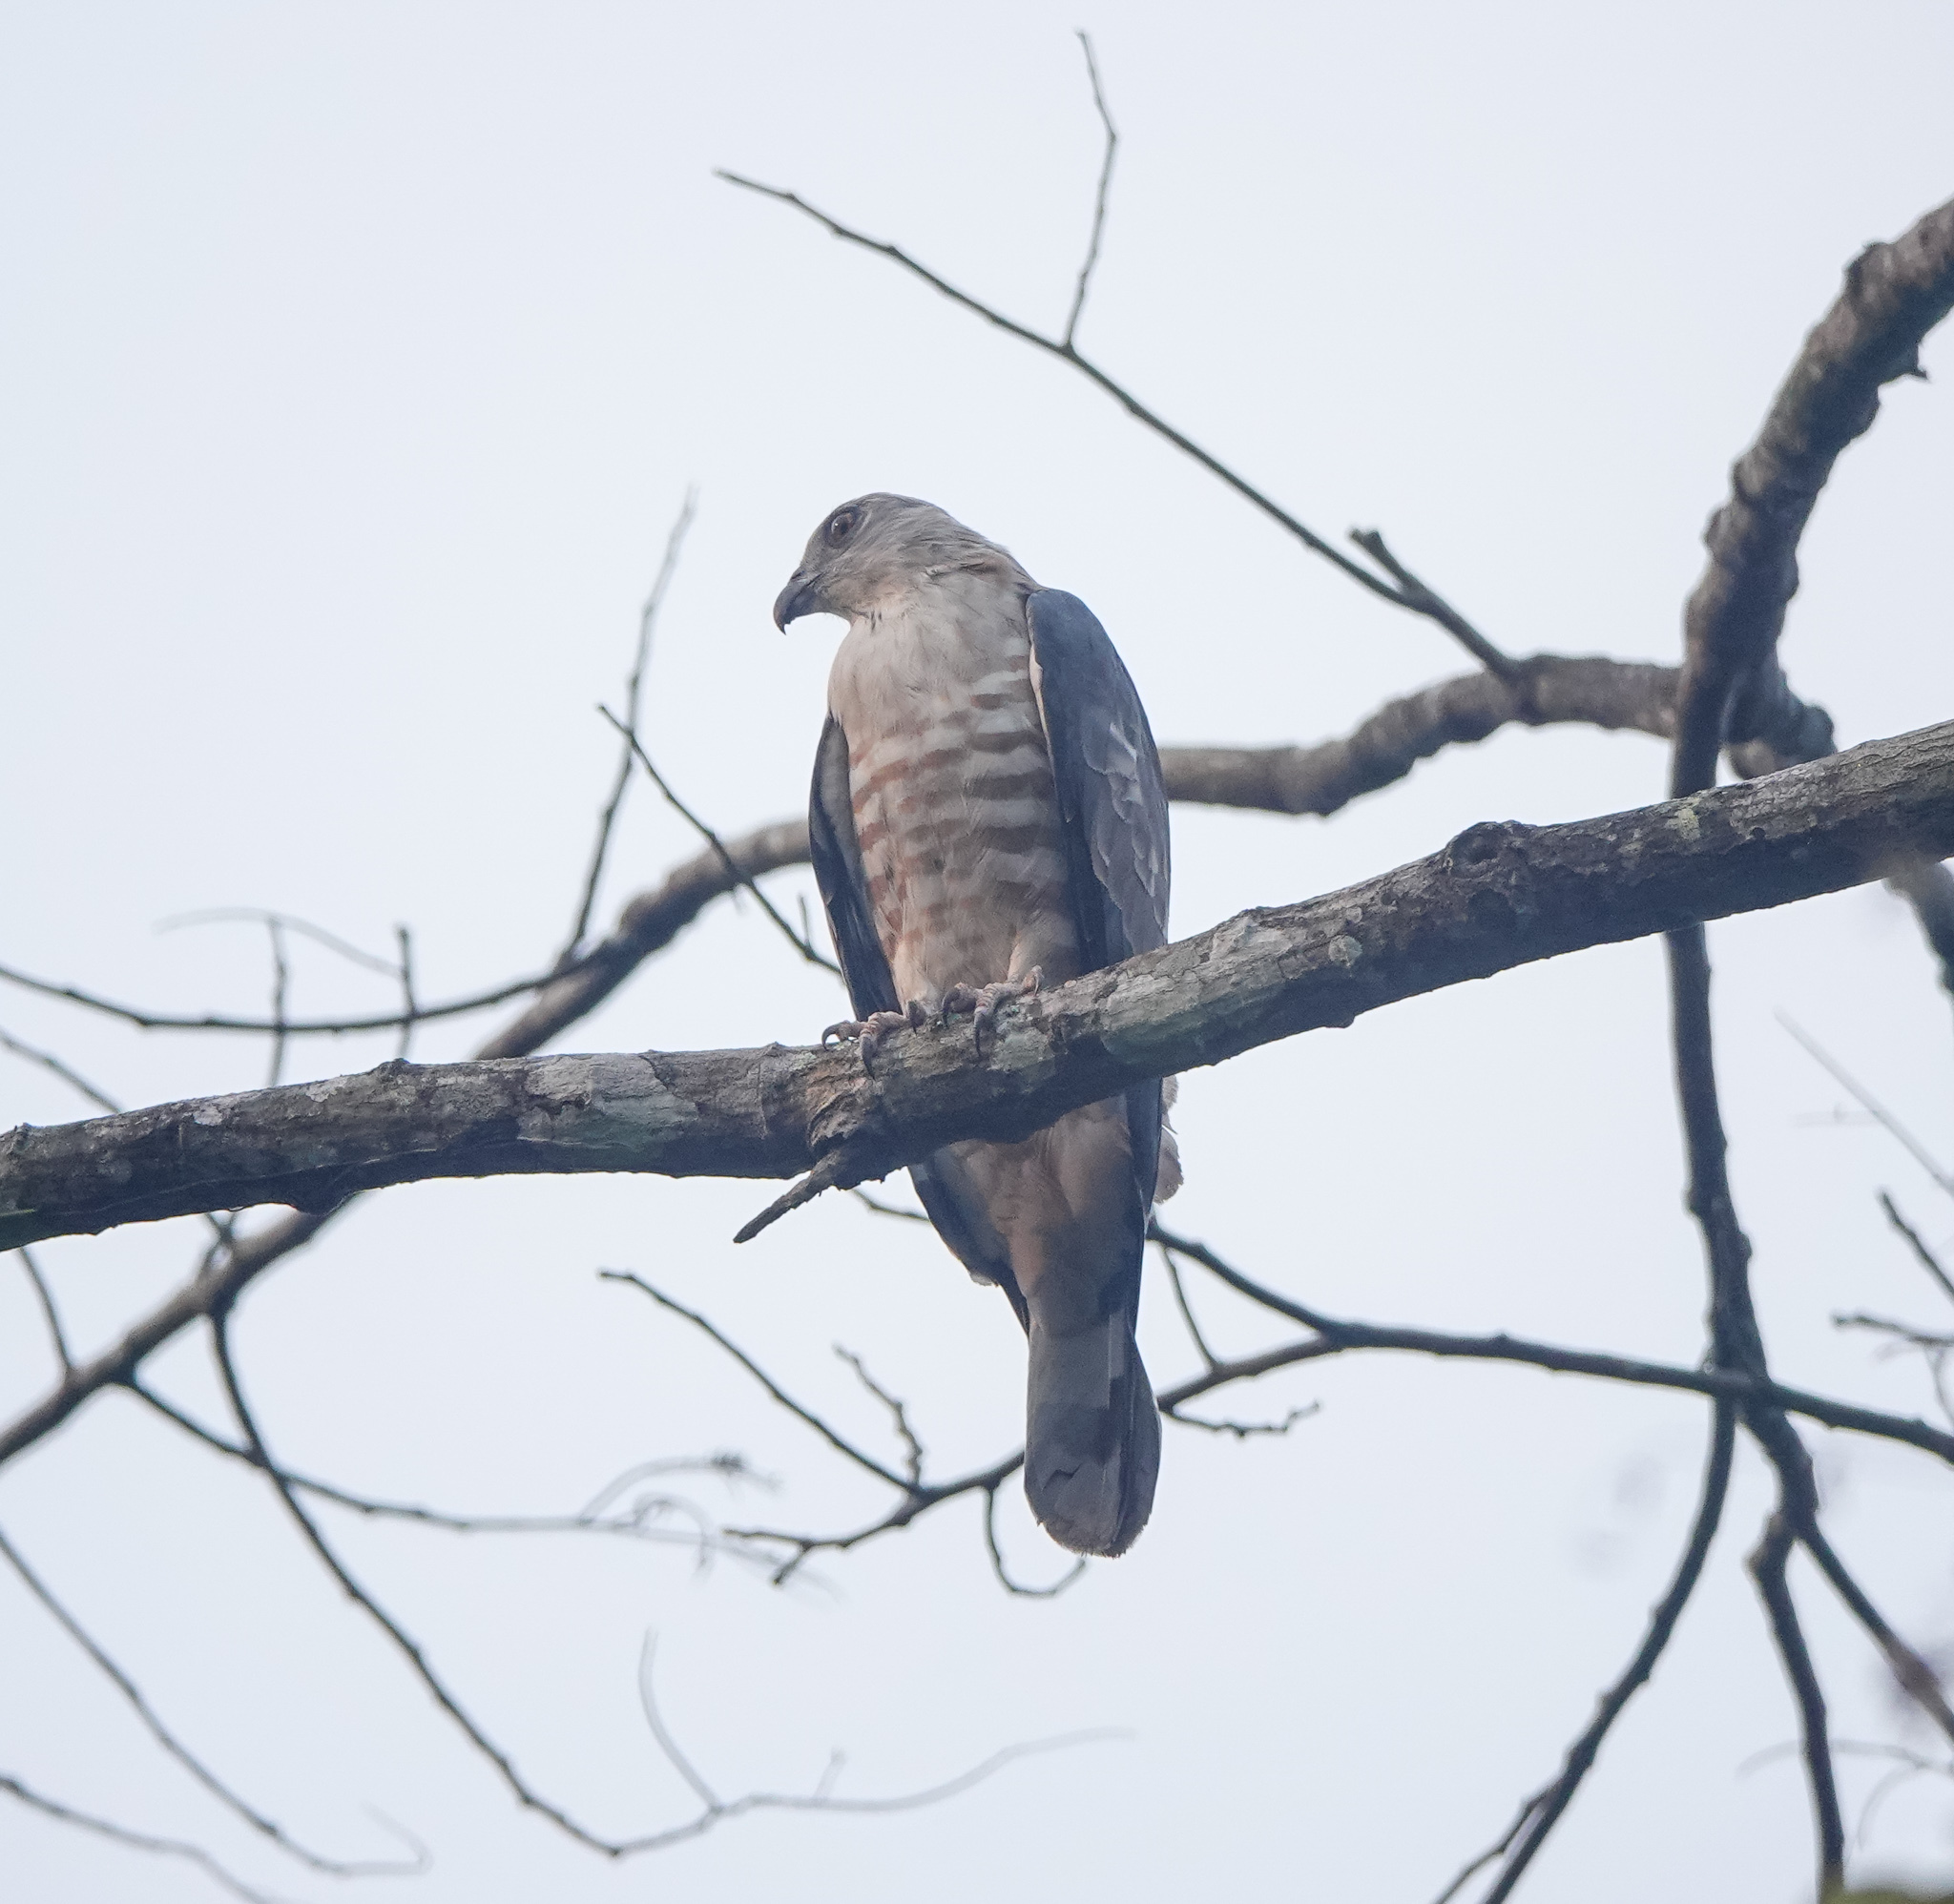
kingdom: Animalia
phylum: Chordata
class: Aves
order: Accipitriformes
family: Accipitridae
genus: Aviceda
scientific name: Aviceda jerdoni
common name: Jerdon's baza
